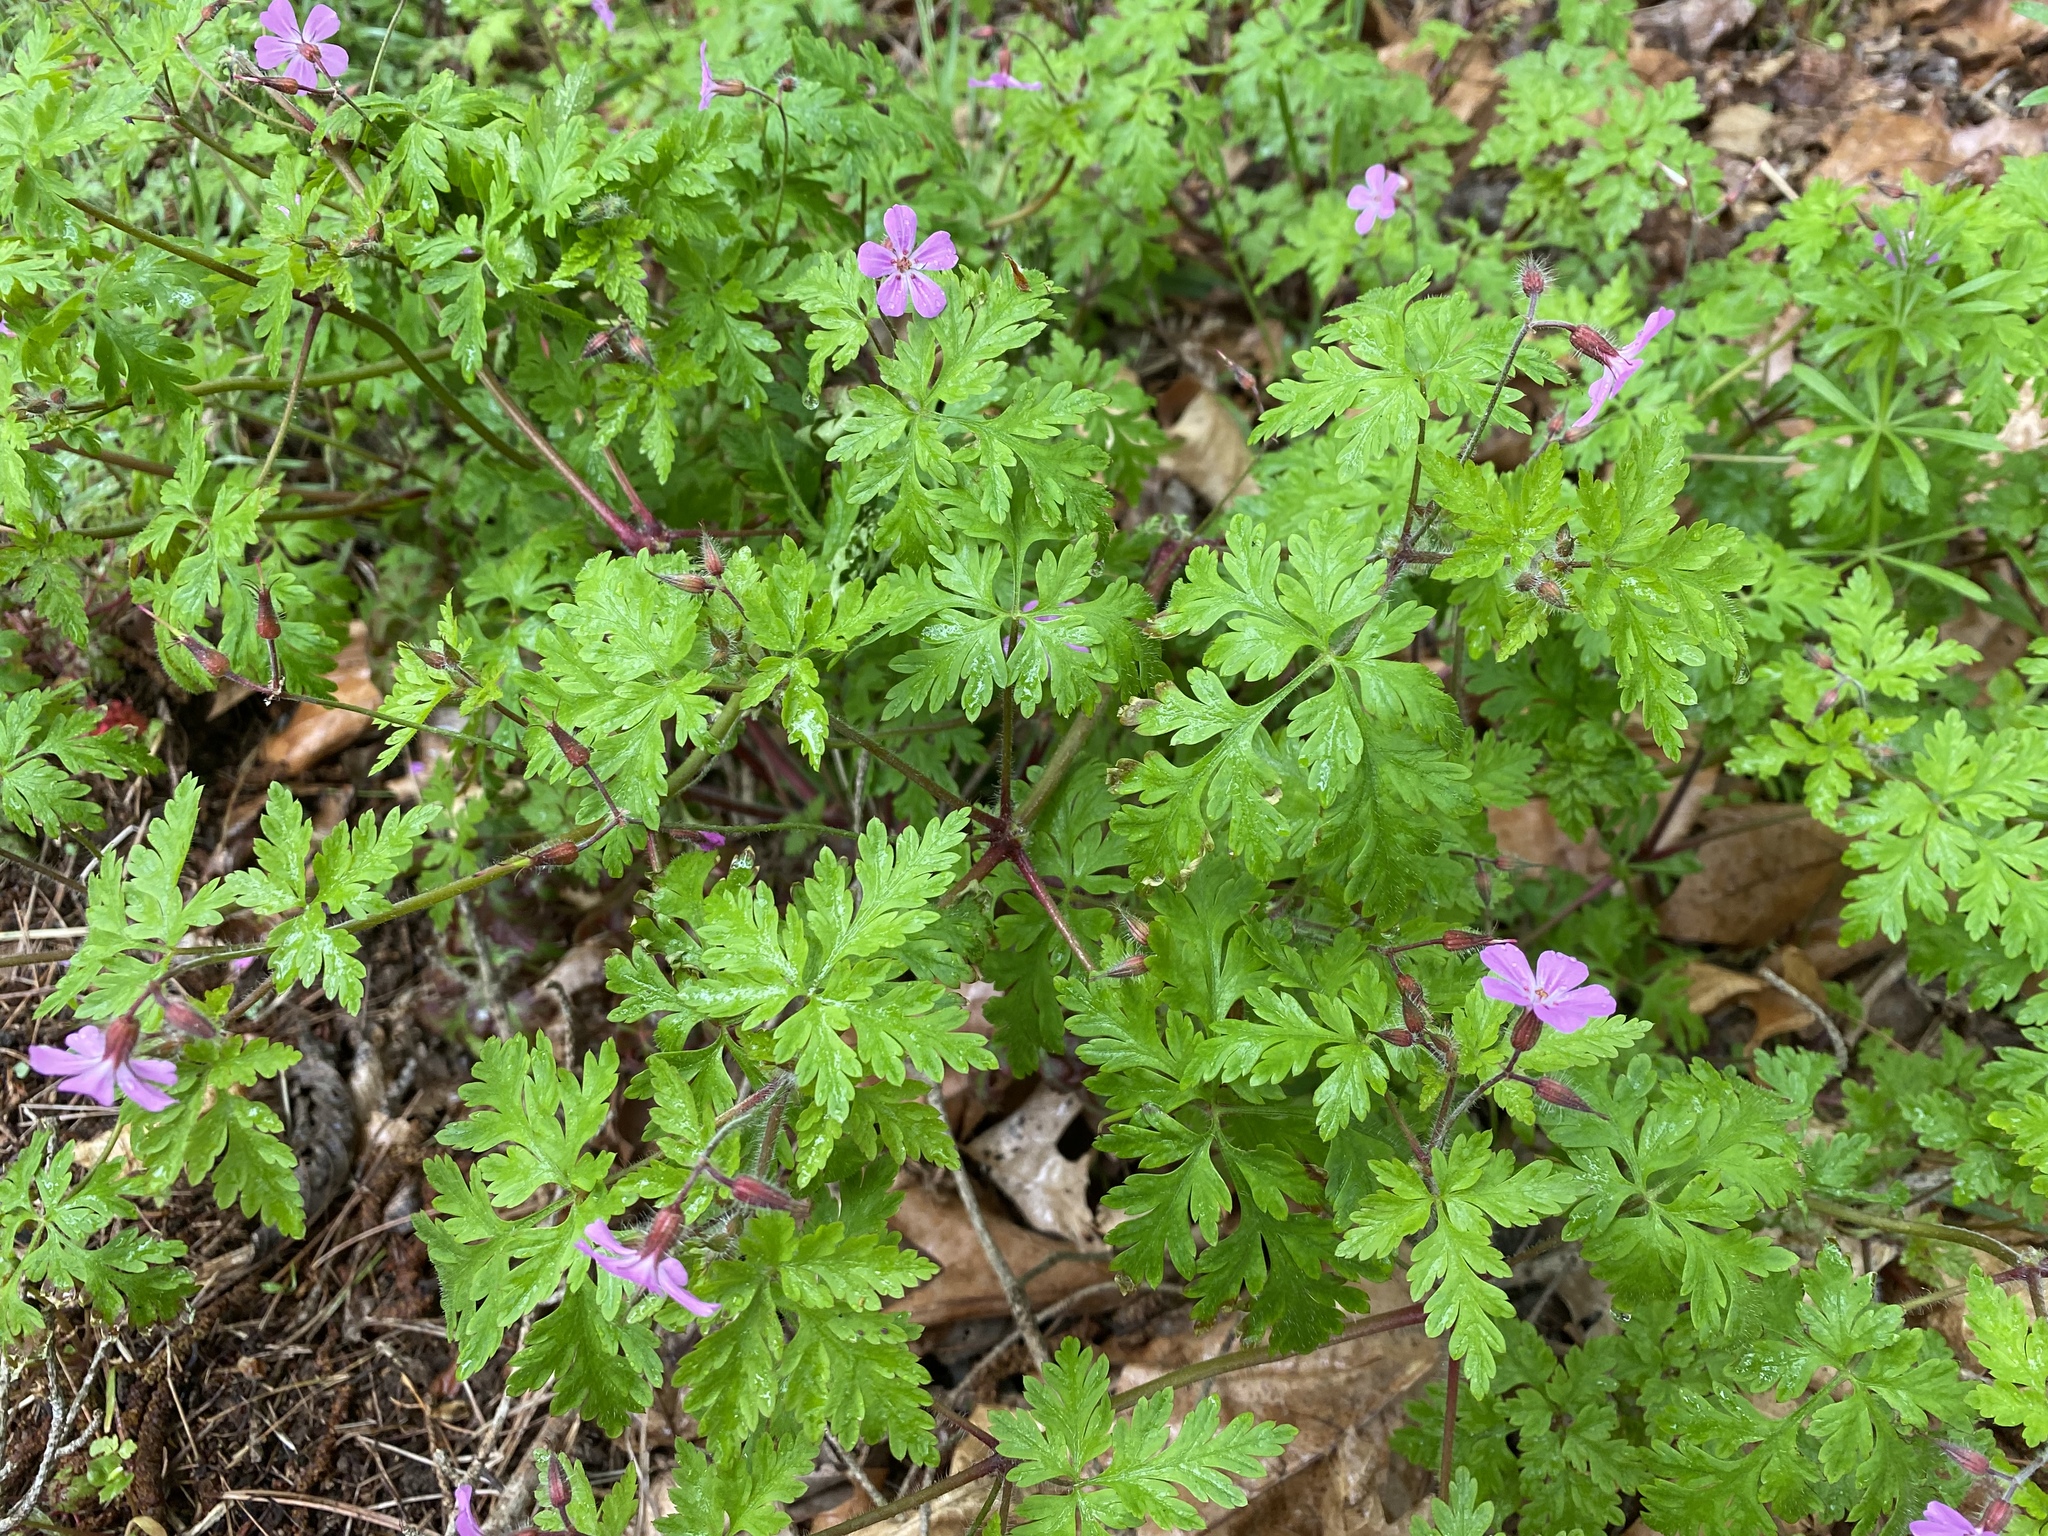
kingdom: Plantae
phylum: Tracheophyta
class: Magnoliopsida
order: Geraniales
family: Geraniaceae
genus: Geranium
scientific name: Geranium robertianum
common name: Herb-robert
